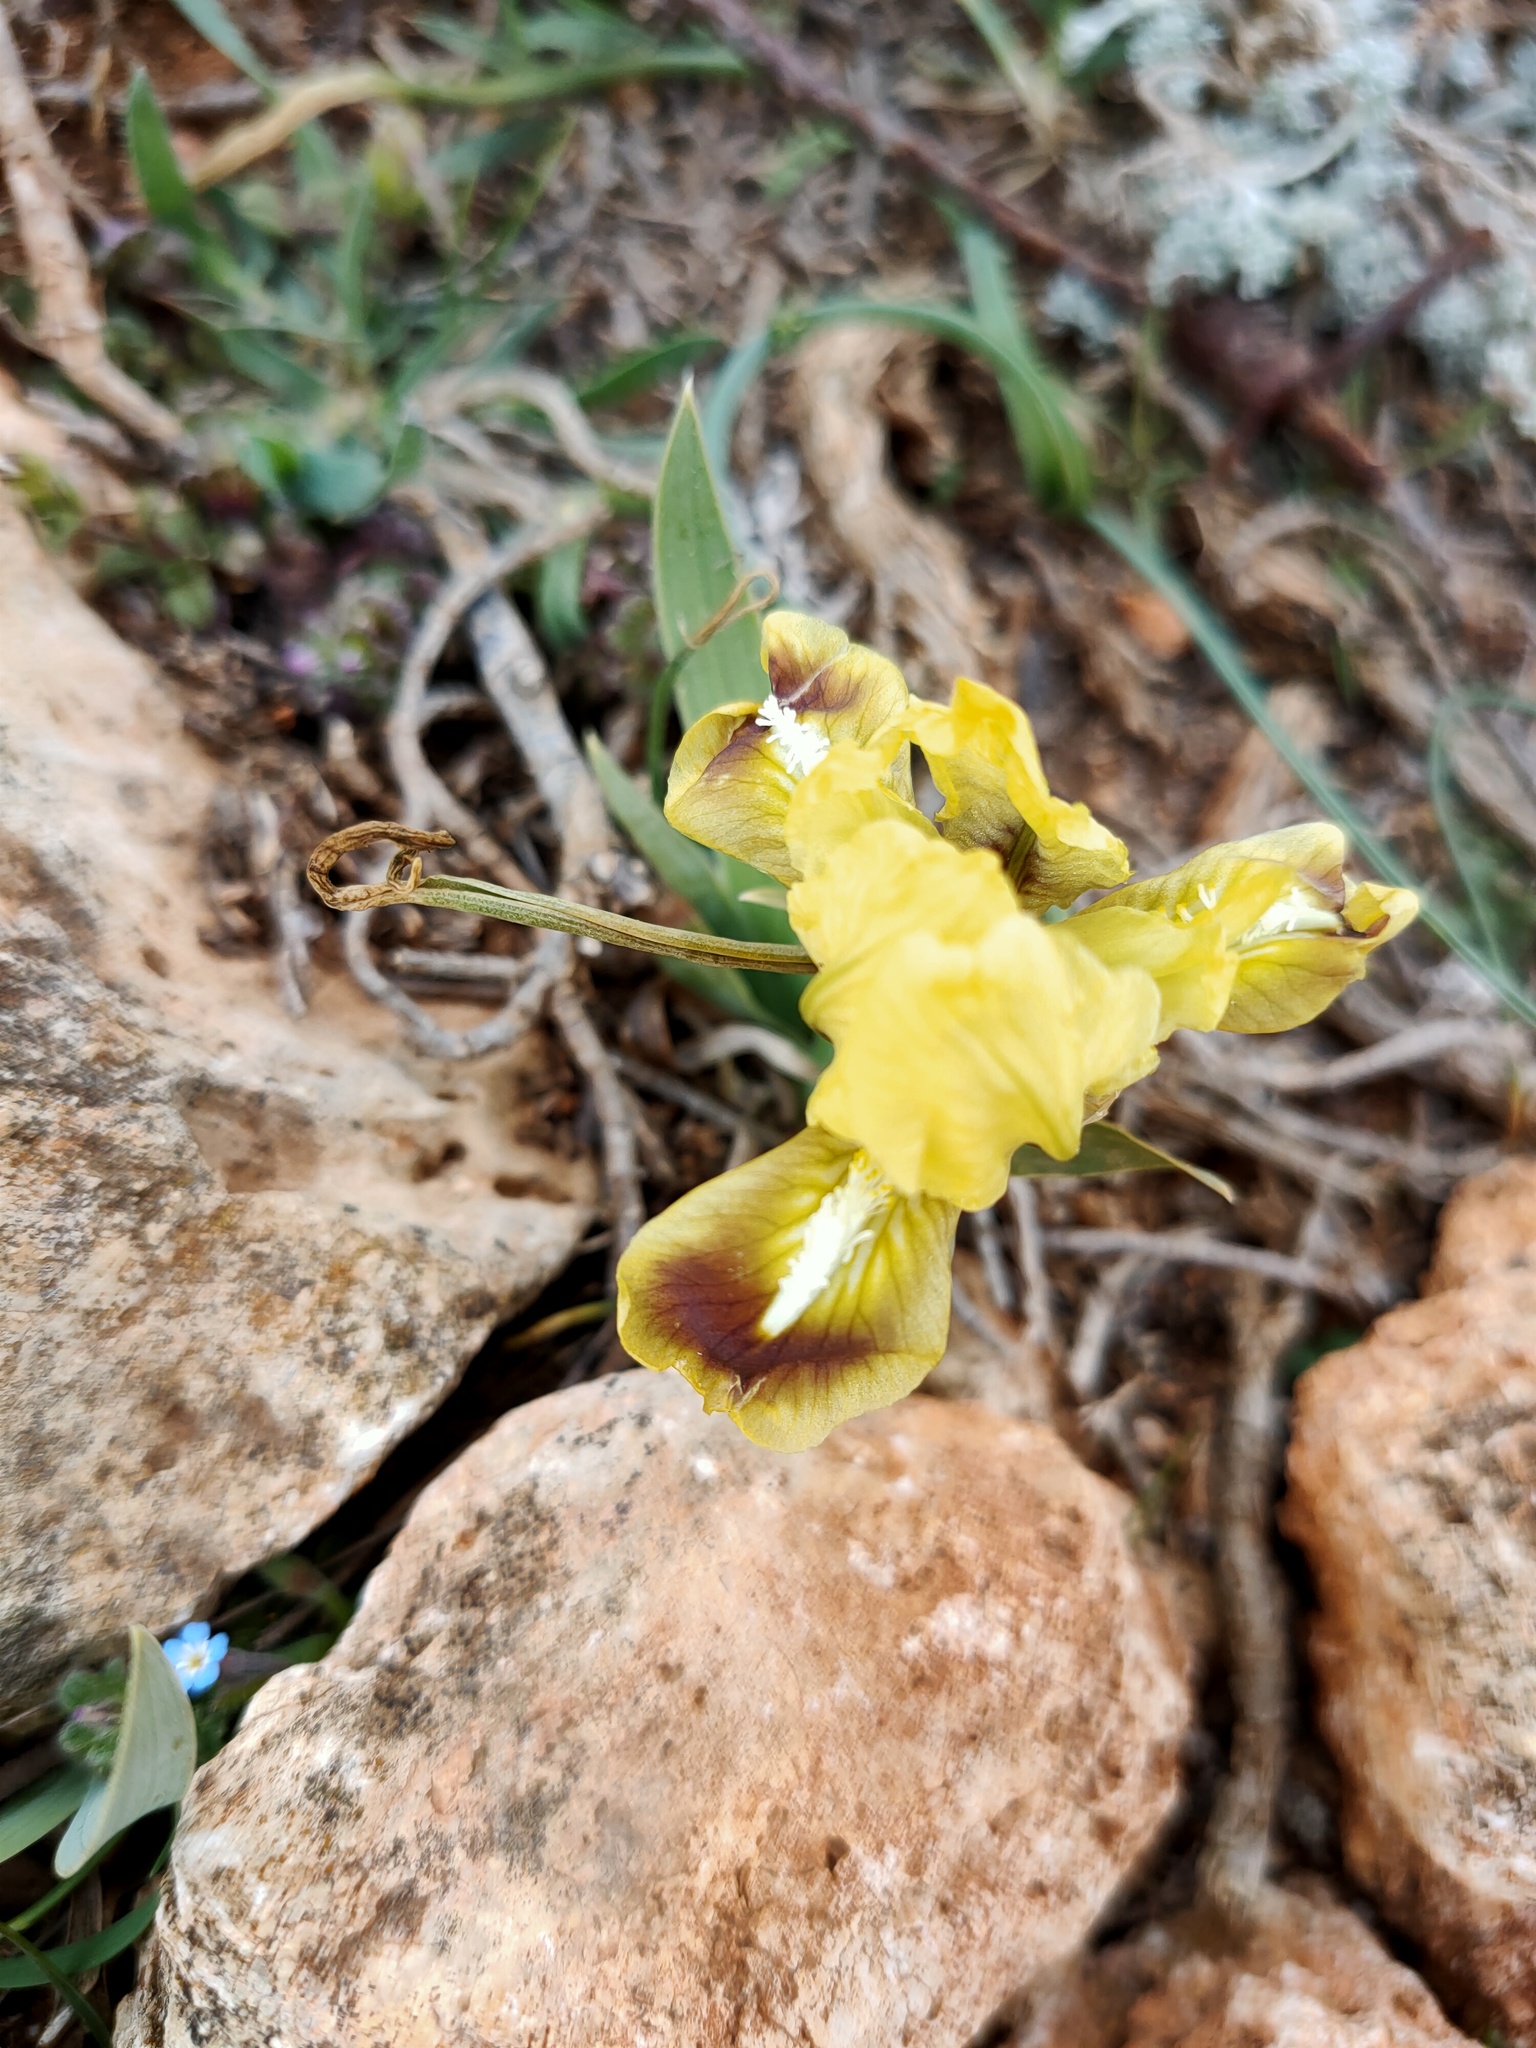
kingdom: Plantae
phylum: Tracheophyta
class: Liliopsida
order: Asparagales
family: Iridaceae
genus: Iris
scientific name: Iris pumila
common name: Dwarf iris
